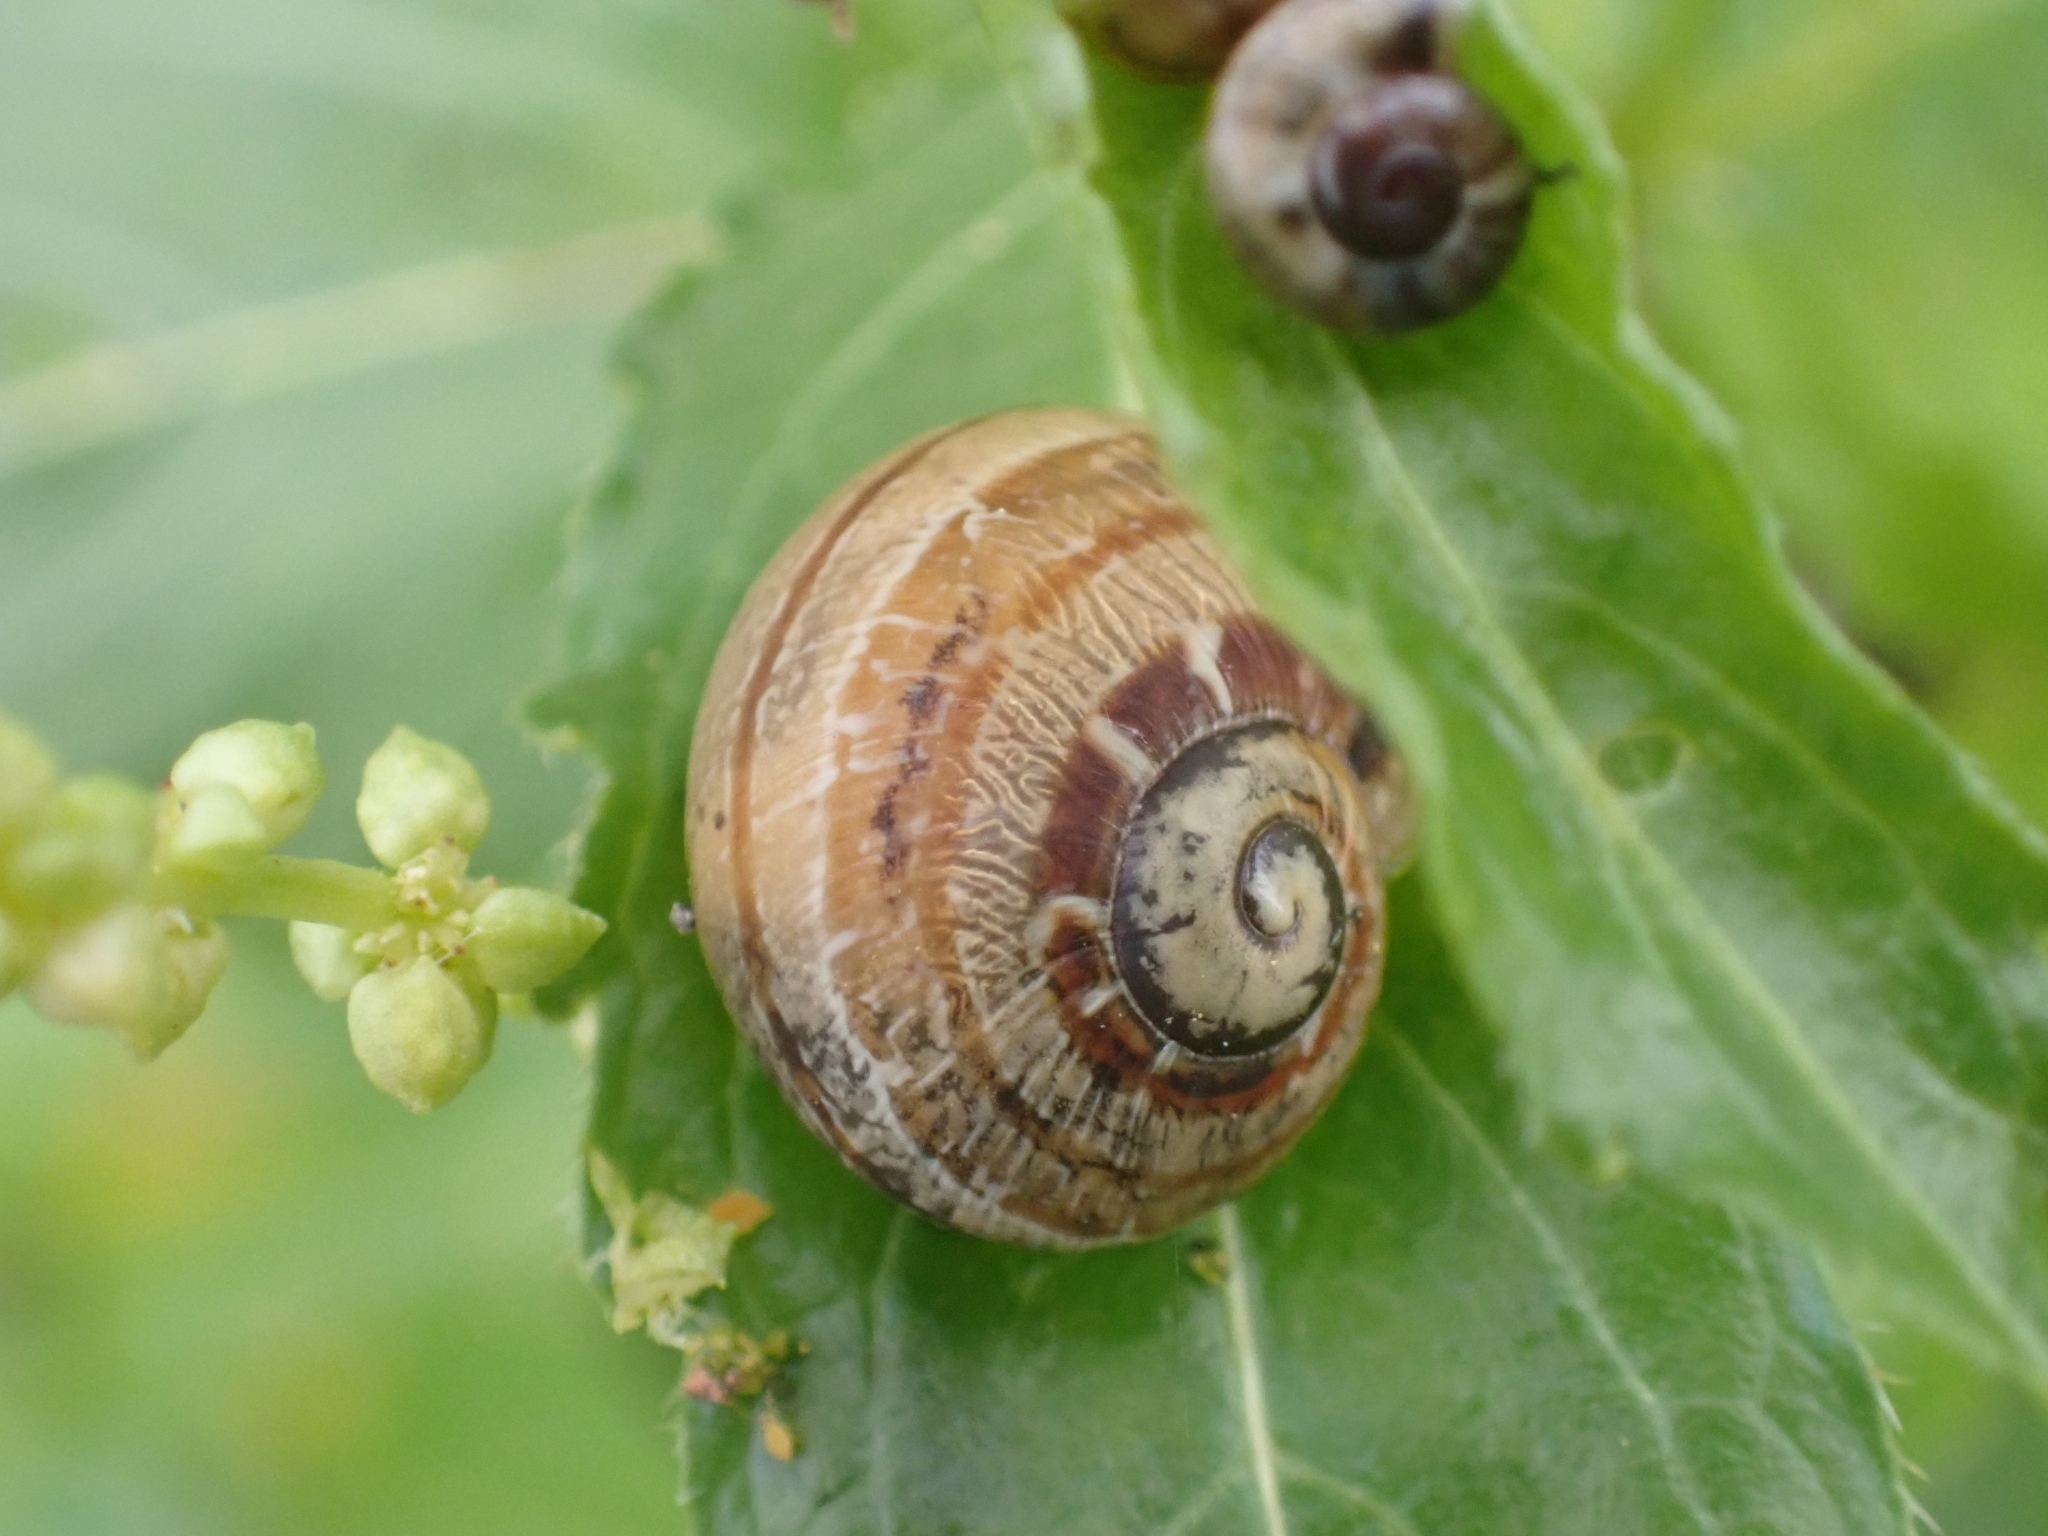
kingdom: Animalia
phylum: Mollusca
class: Gastropoda
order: Stylommatophora
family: Helicidae
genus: Cornu
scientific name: Cornu aspersum
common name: Brown garden snail
